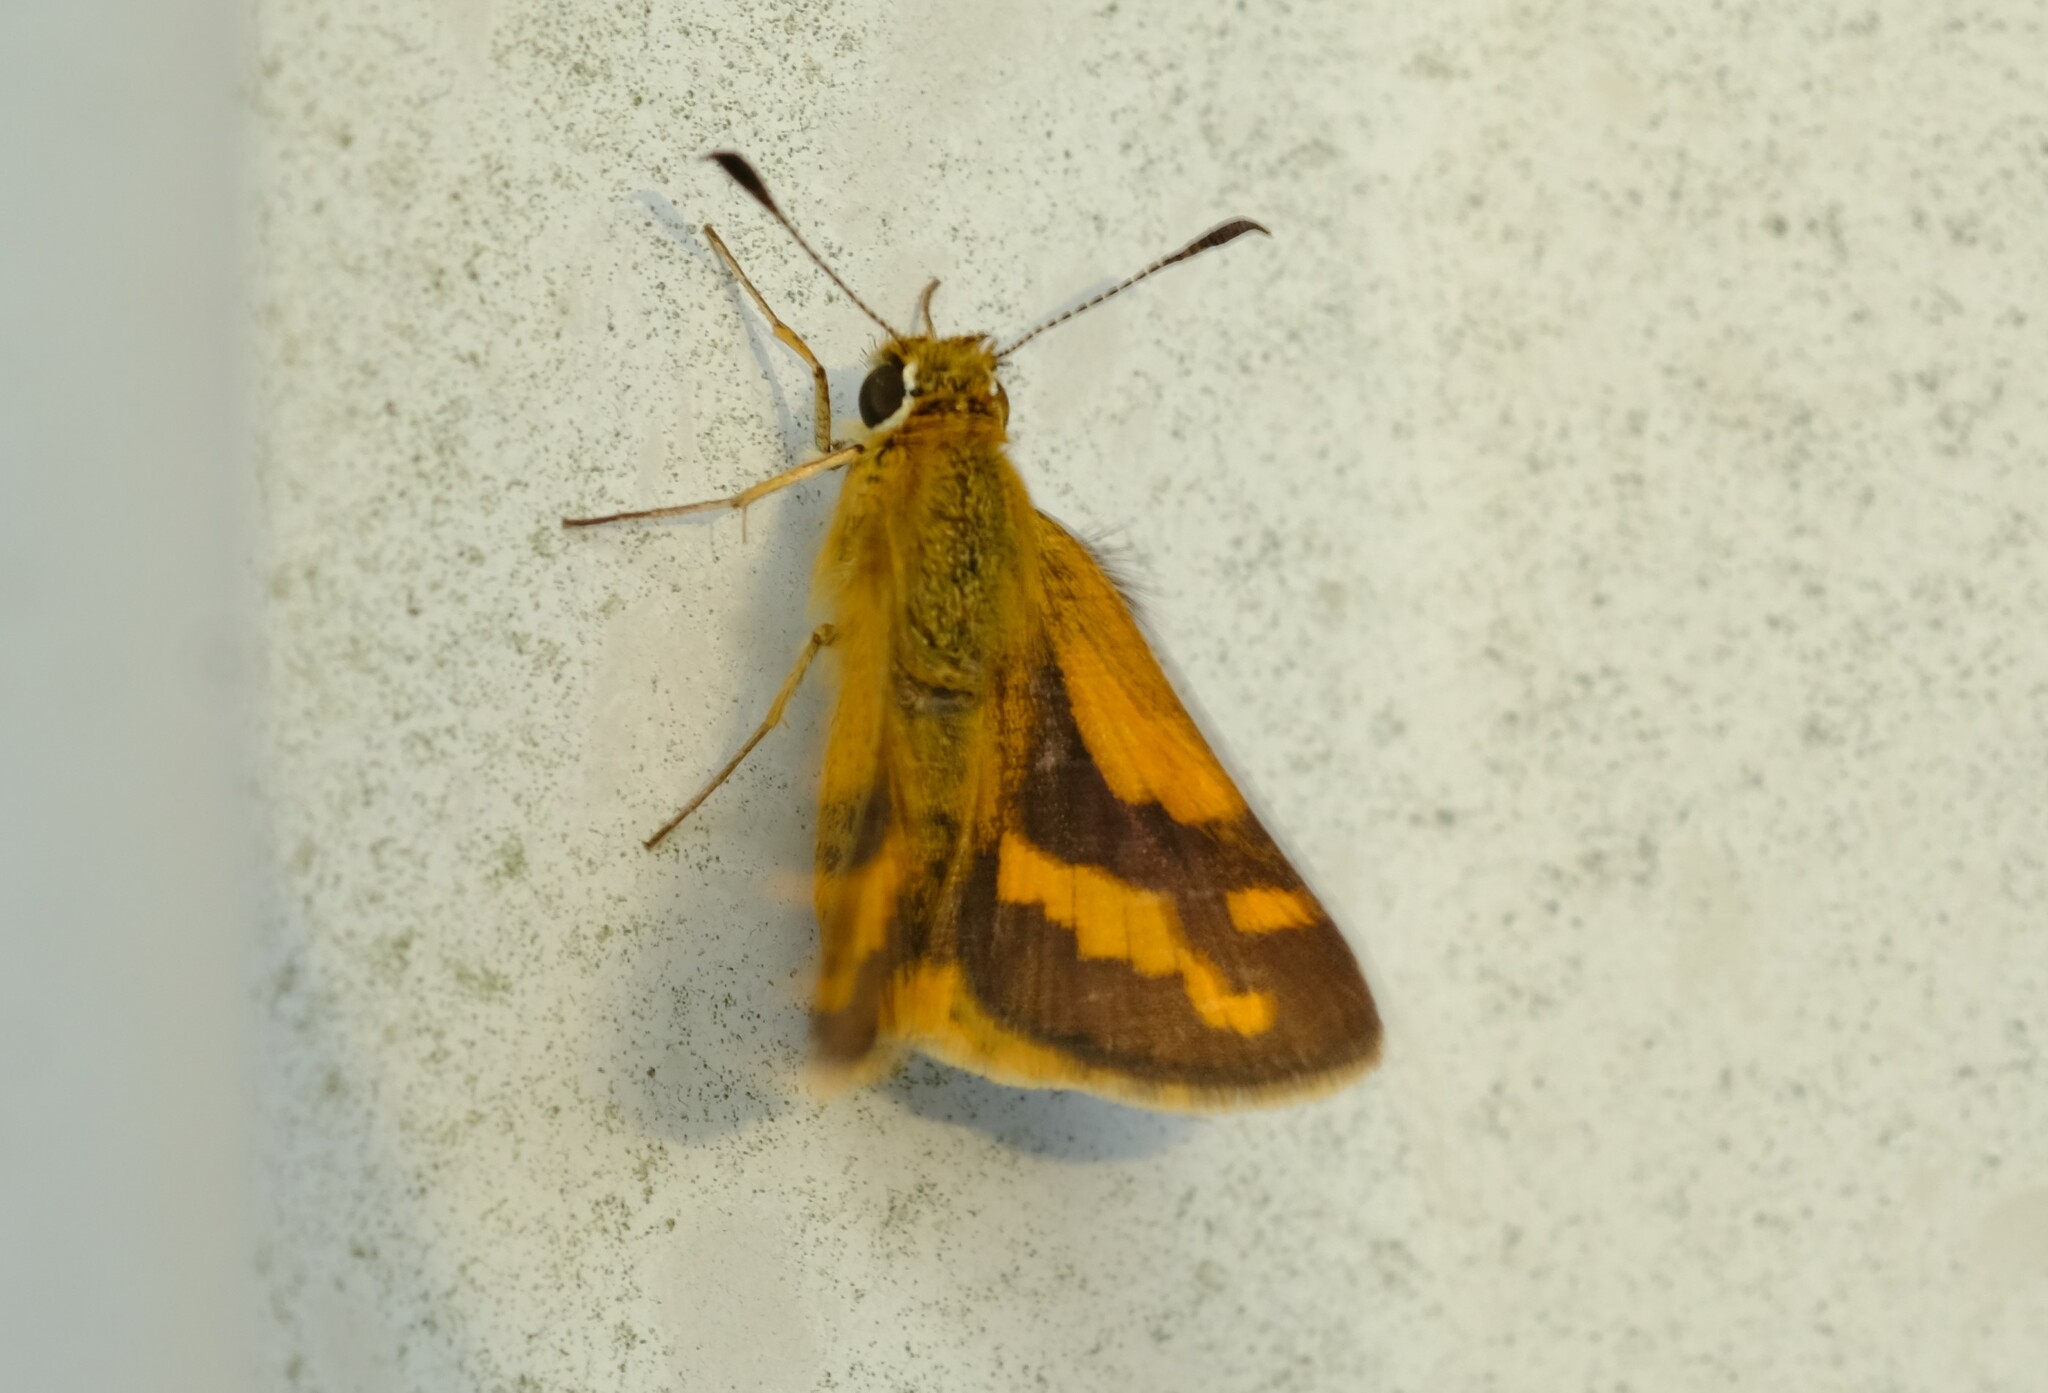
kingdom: Animalia
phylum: Arthropoda
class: Insecta
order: Lepidoptera
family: Hesperiidae
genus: Ocybadistes
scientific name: Ocybadistes flavovittata
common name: Narrow-brand grass-dart
